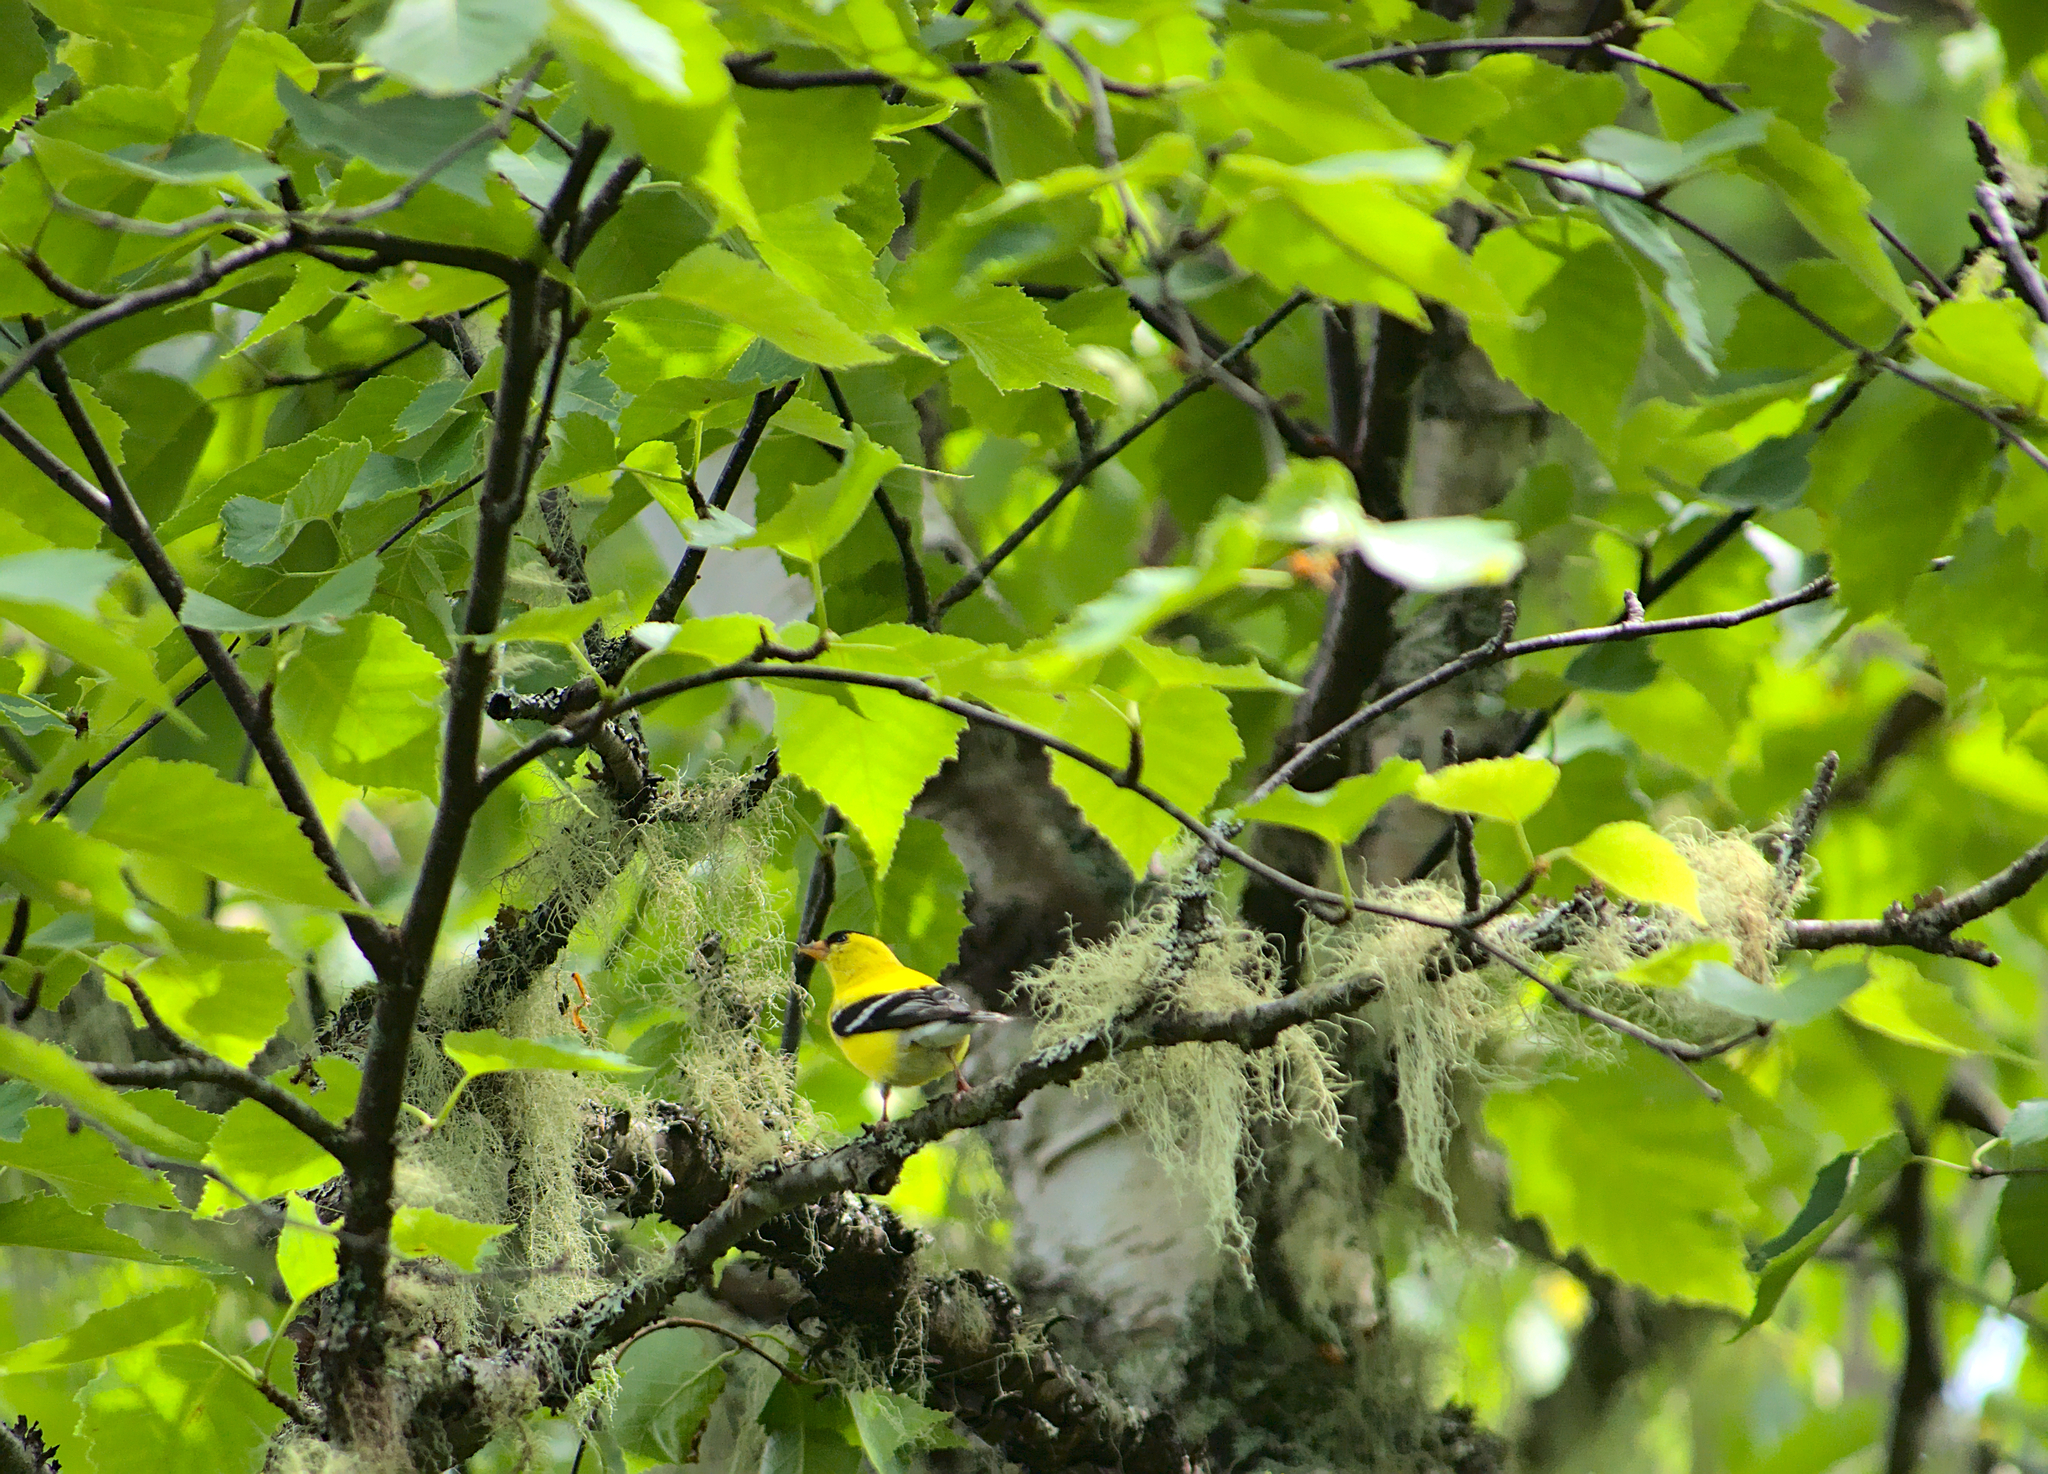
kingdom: Animalia
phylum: Chordata
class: Aves
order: Passeriformes
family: Fringillidae
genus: Spinus
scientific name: Spinus tristis
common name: American goldfinch
